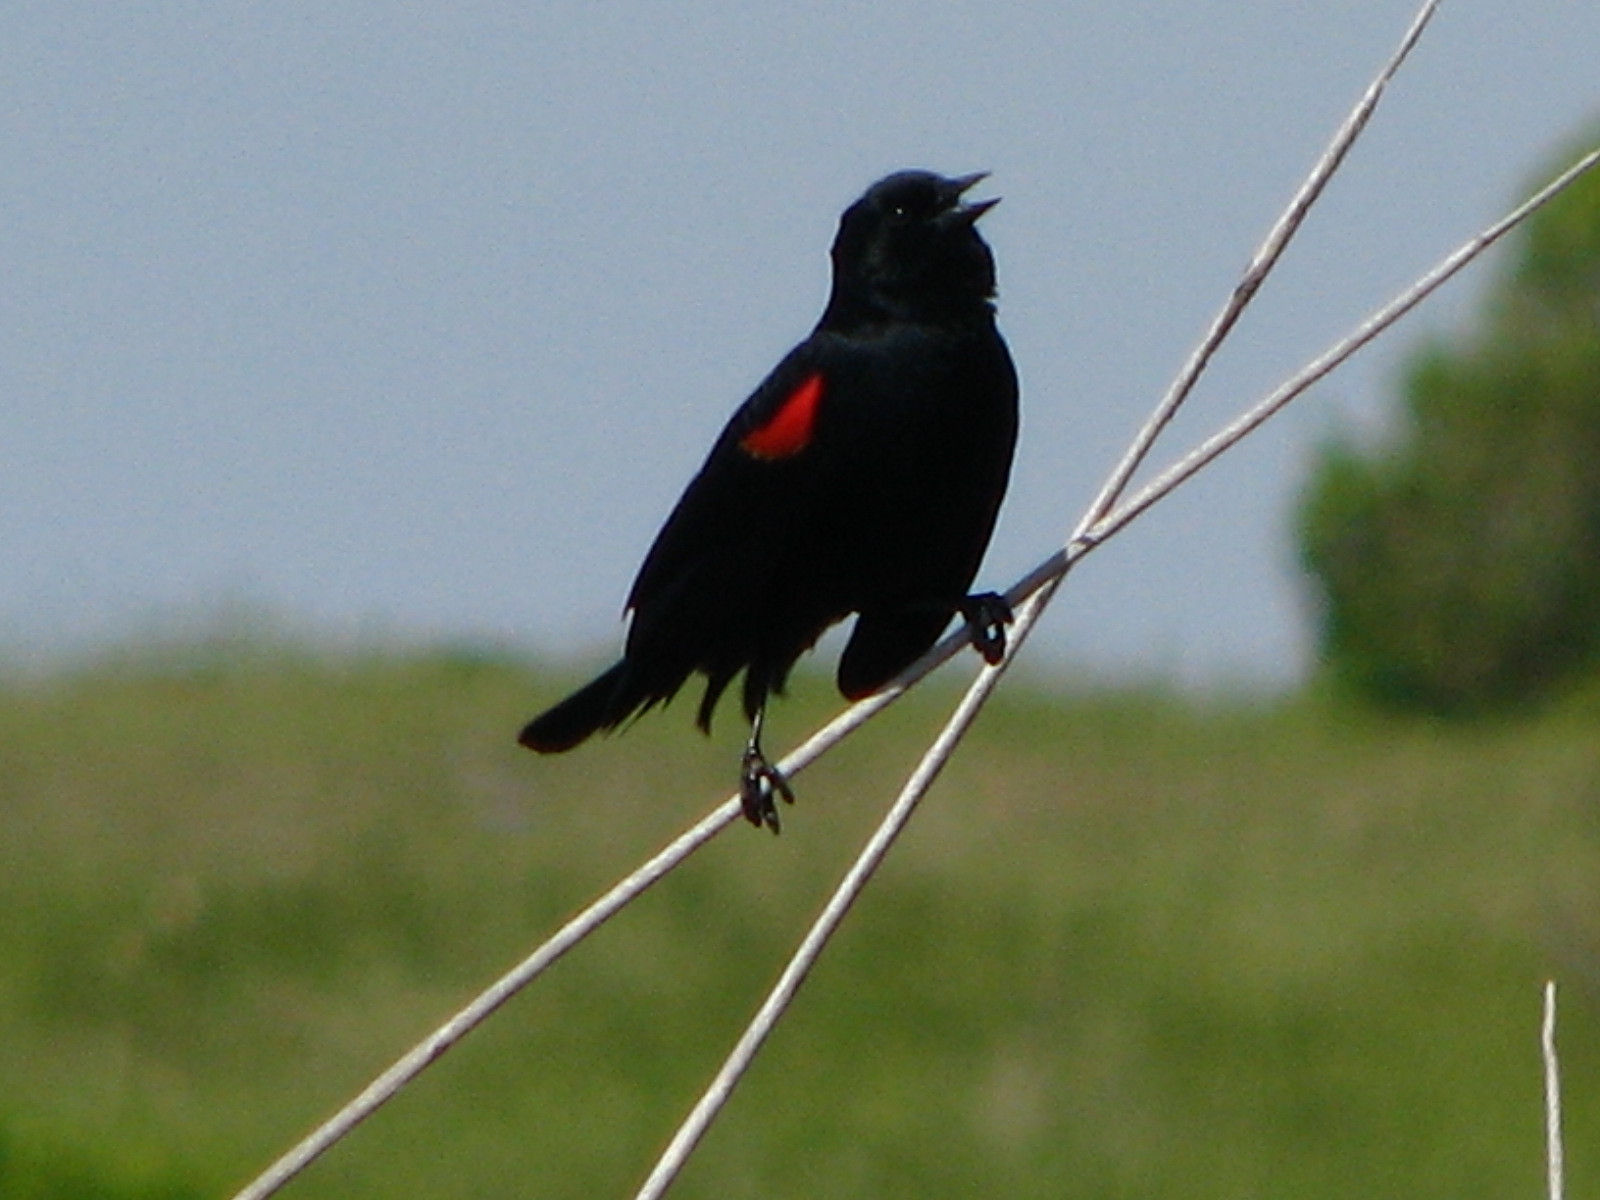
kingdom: Animalia
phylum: Chordata
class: Aves
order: Passeriformes
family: Icteridae
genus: Agelaius
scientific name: Agelaius phoeniceus
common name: Red-winged blackbird
